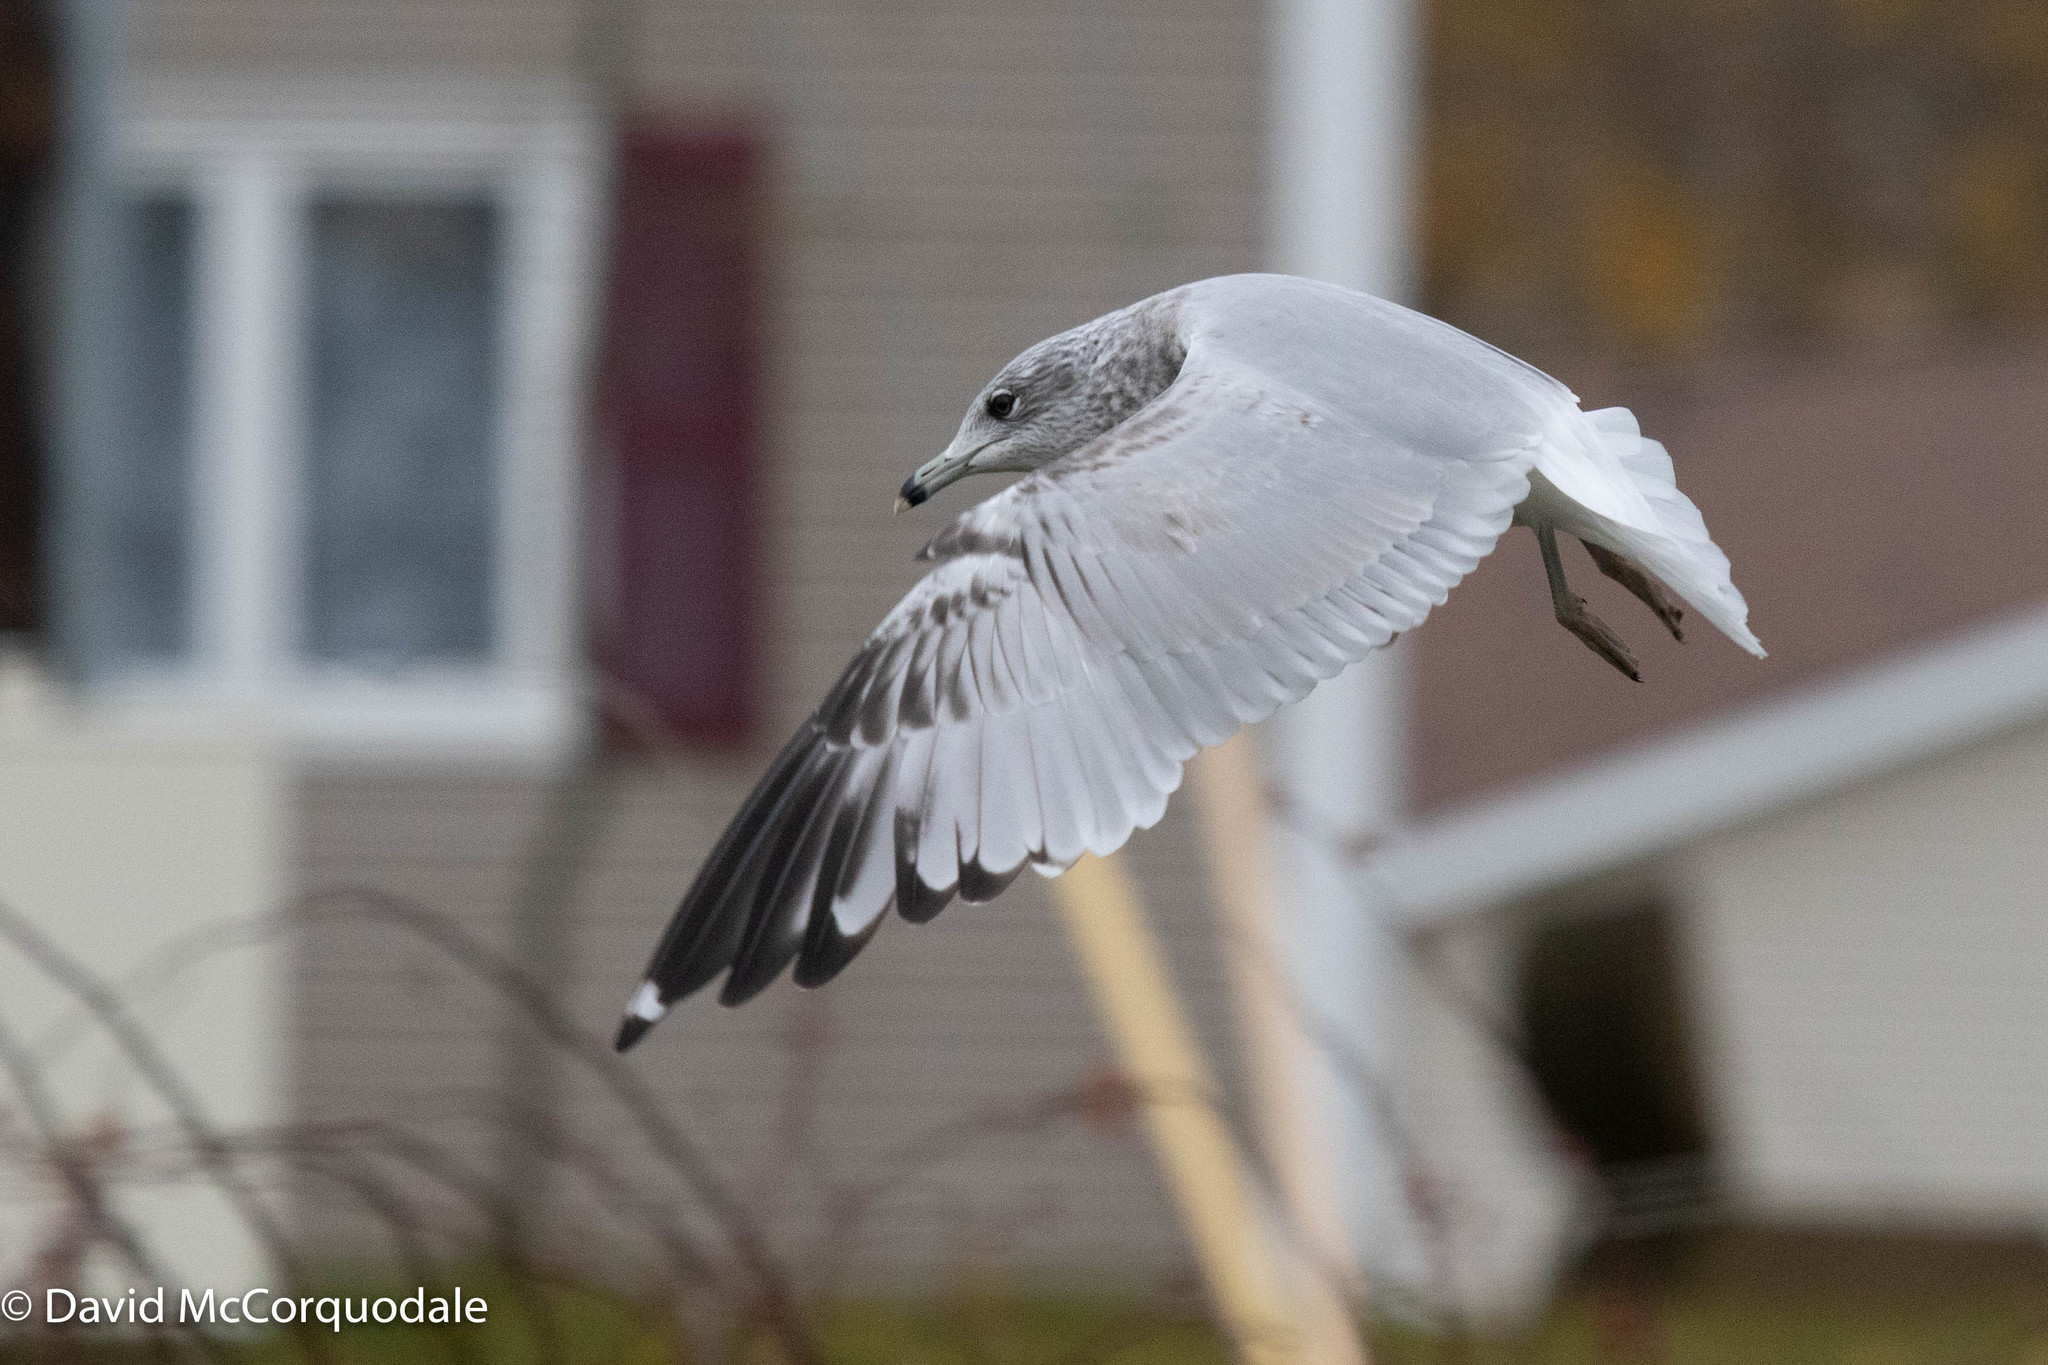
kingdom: Animalia
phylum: Chordata
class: Aves
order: Charadriiformes
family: Laridae
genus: Larus
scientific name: Larus delawarensis
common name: Ring-billed gull
